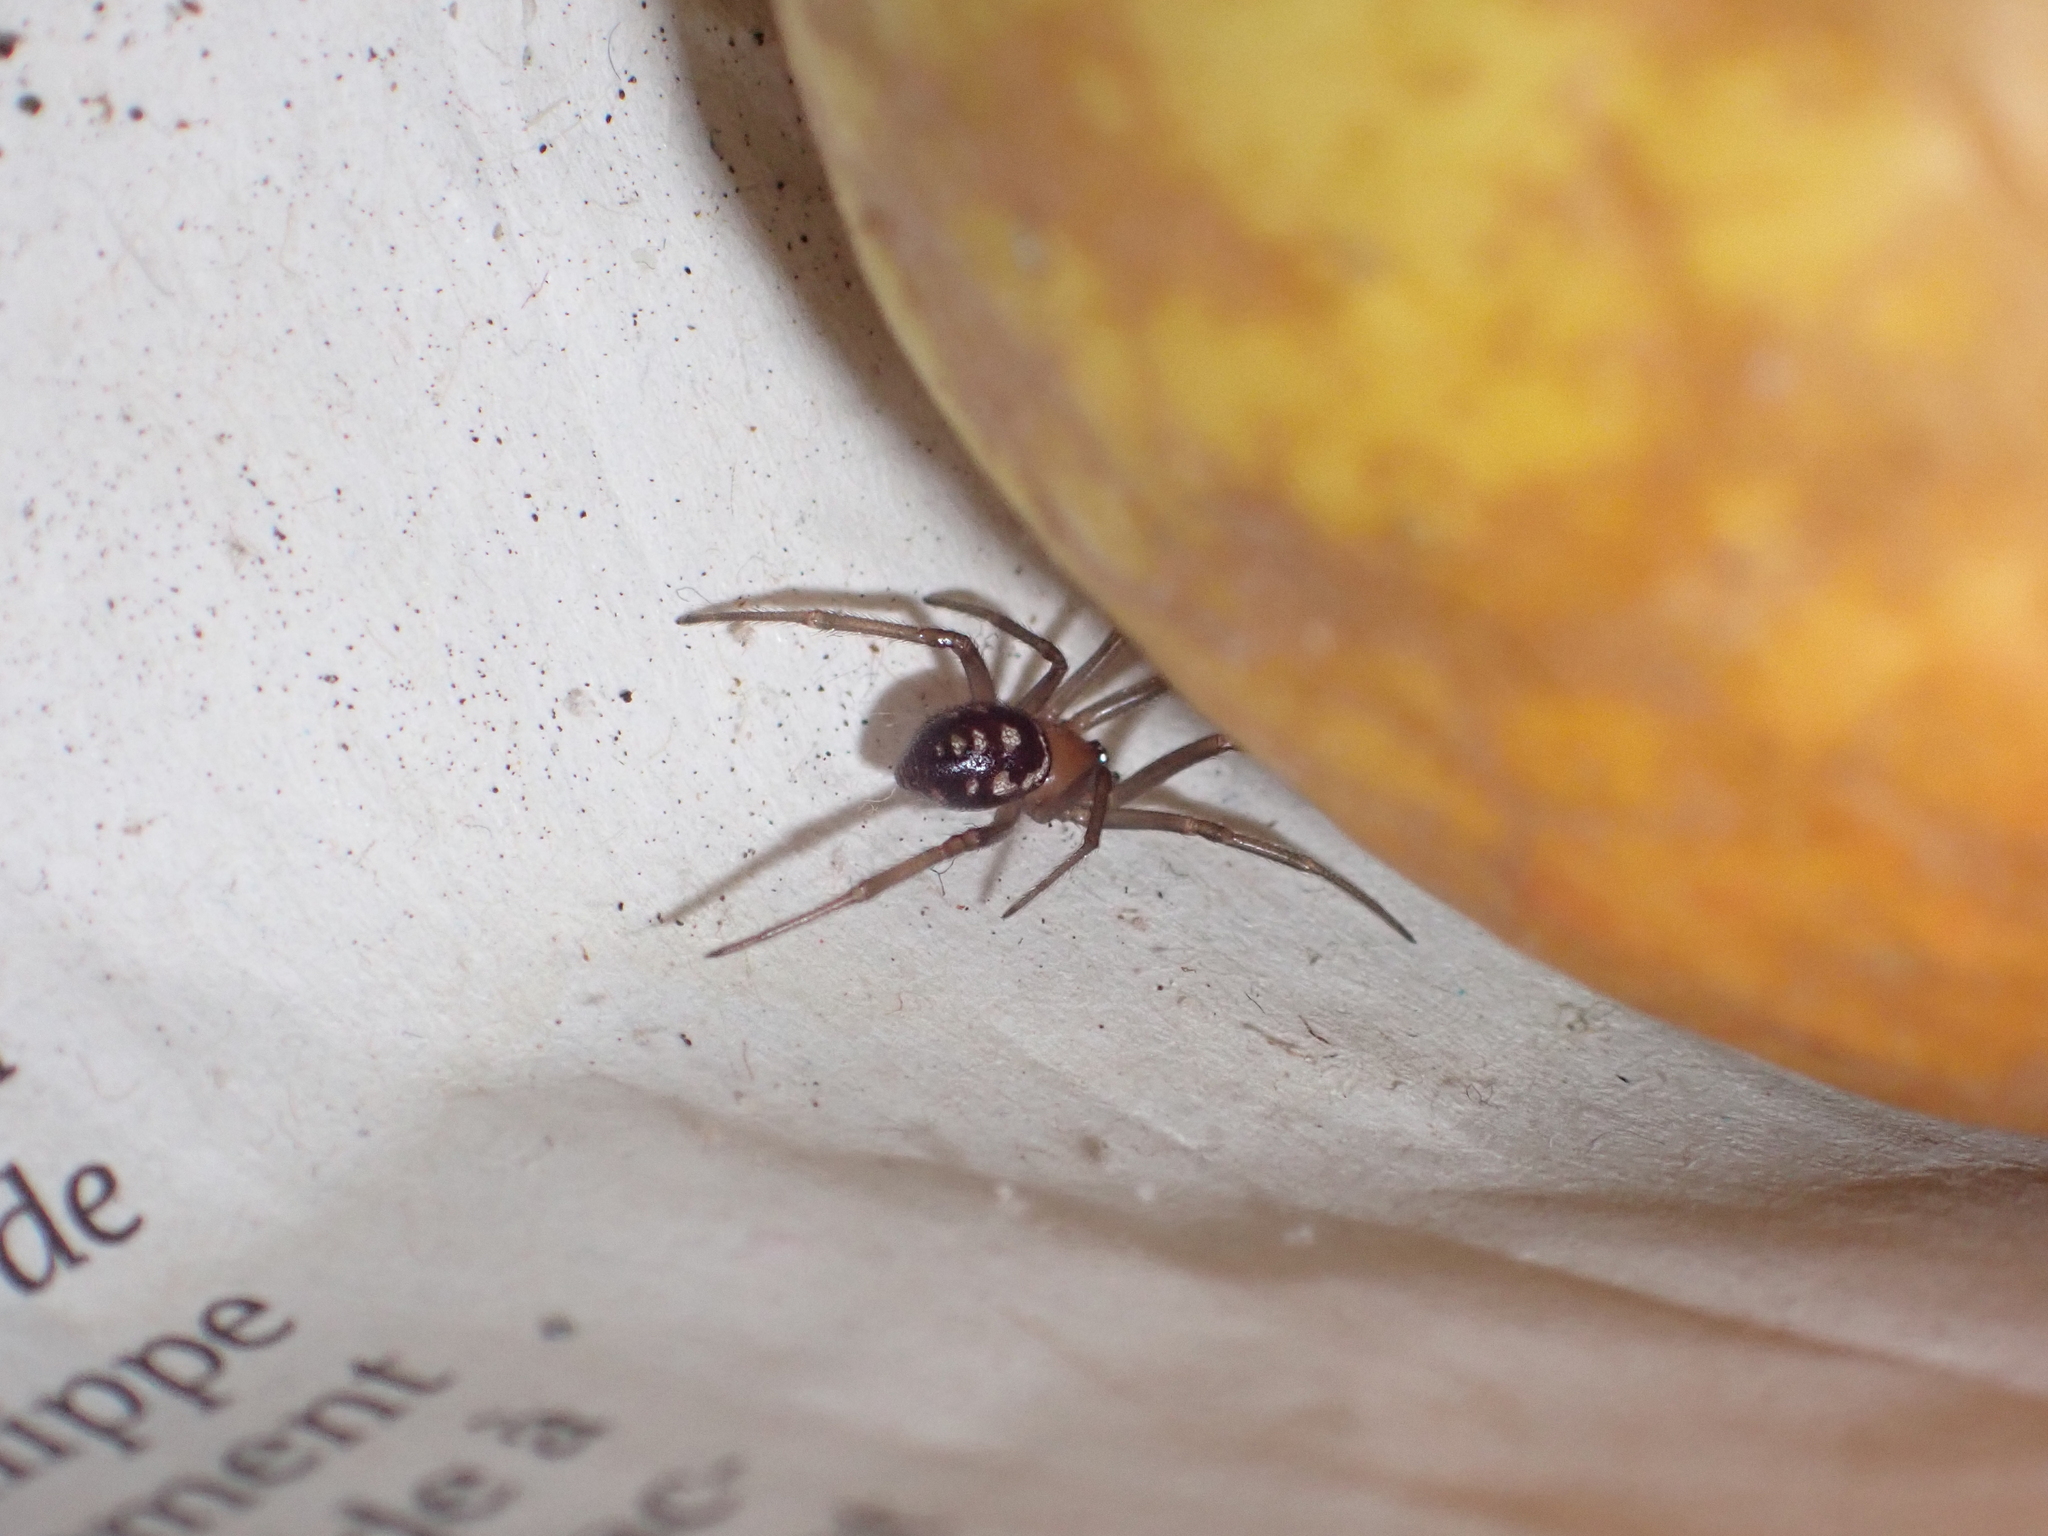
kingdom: Animalia
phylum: Arthropoda
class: Arachnida
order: Araneae
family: Theridiidae
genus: Steatoda
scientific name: Steatoda grossa
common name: False black widow
